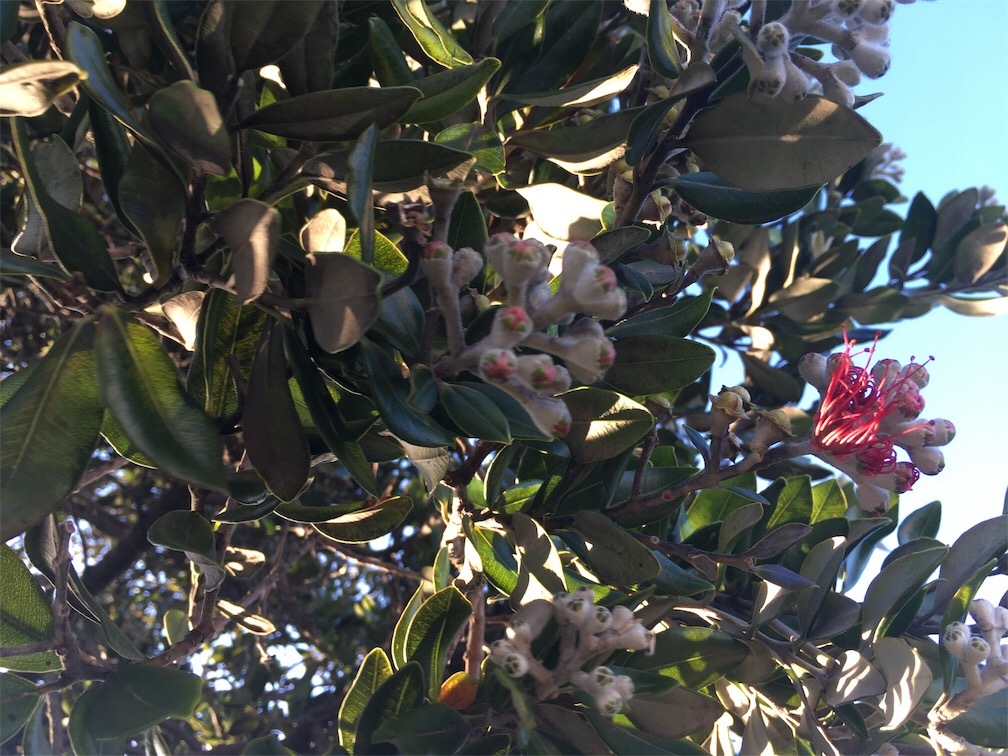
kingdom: Plantae
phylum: Tracheophyta
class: Magnoliopsida
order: Myrtales
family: Myrtaceae
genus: Metrosideros
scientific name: Metrosideros excelsa
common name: New zealand christmastree
